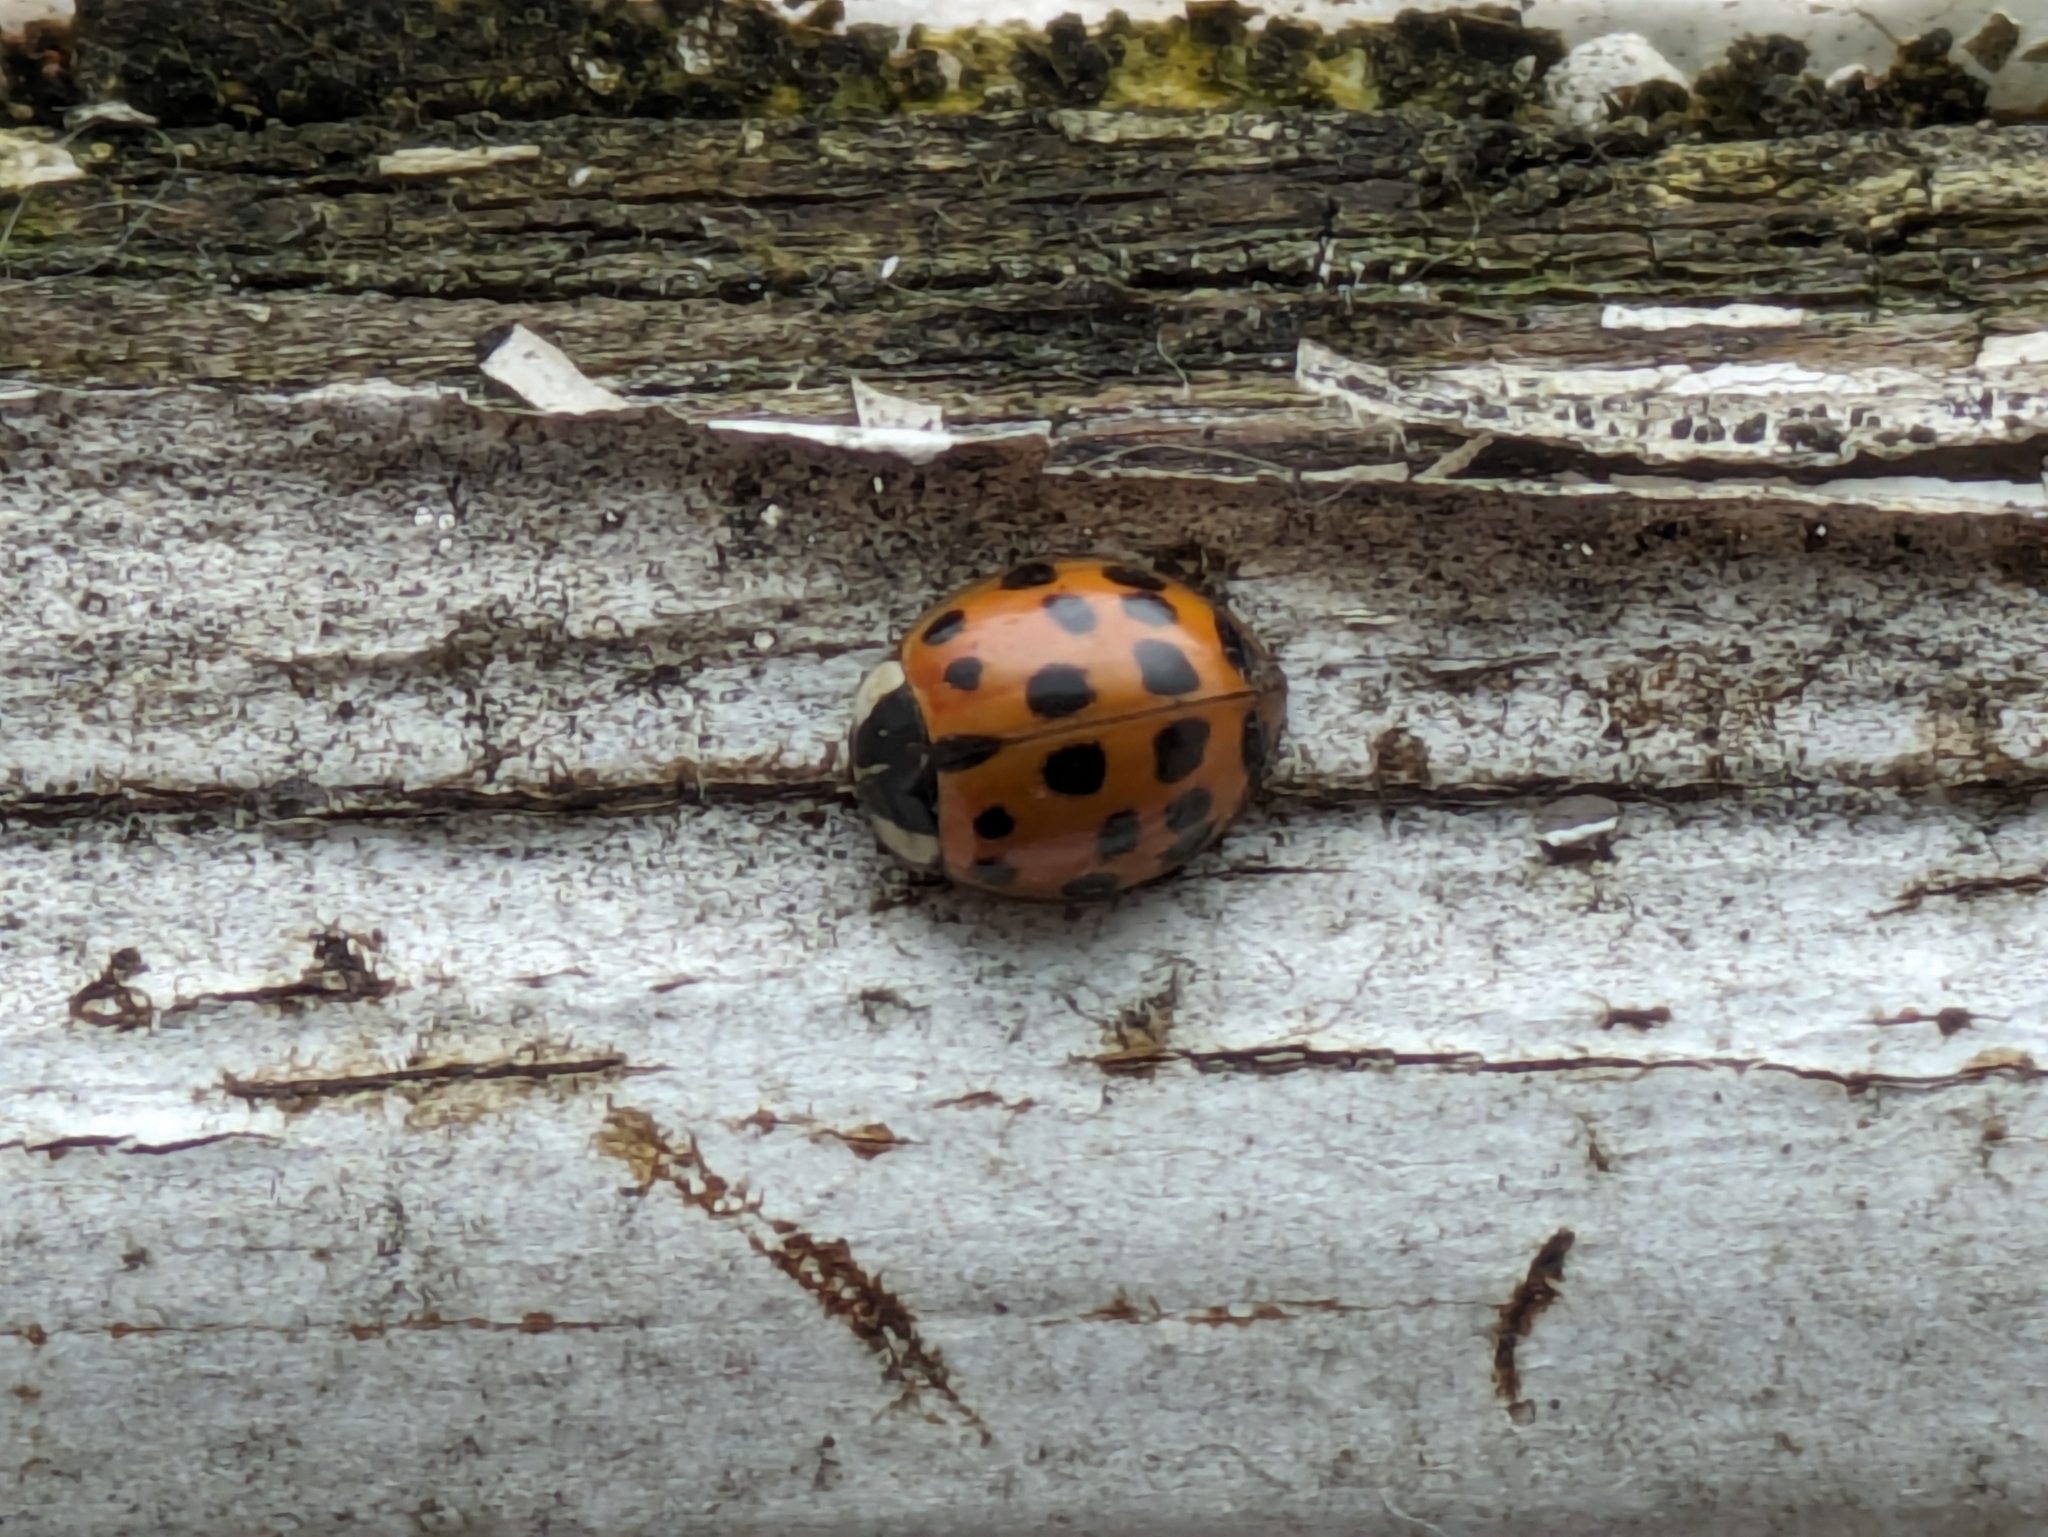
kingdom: Animalia
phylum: Arthropoda
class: Insecta
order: Coleoptera
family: Coccinellidae
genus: Harmonia
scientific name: Harmonia axyridis
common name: Harlequin ladybird
